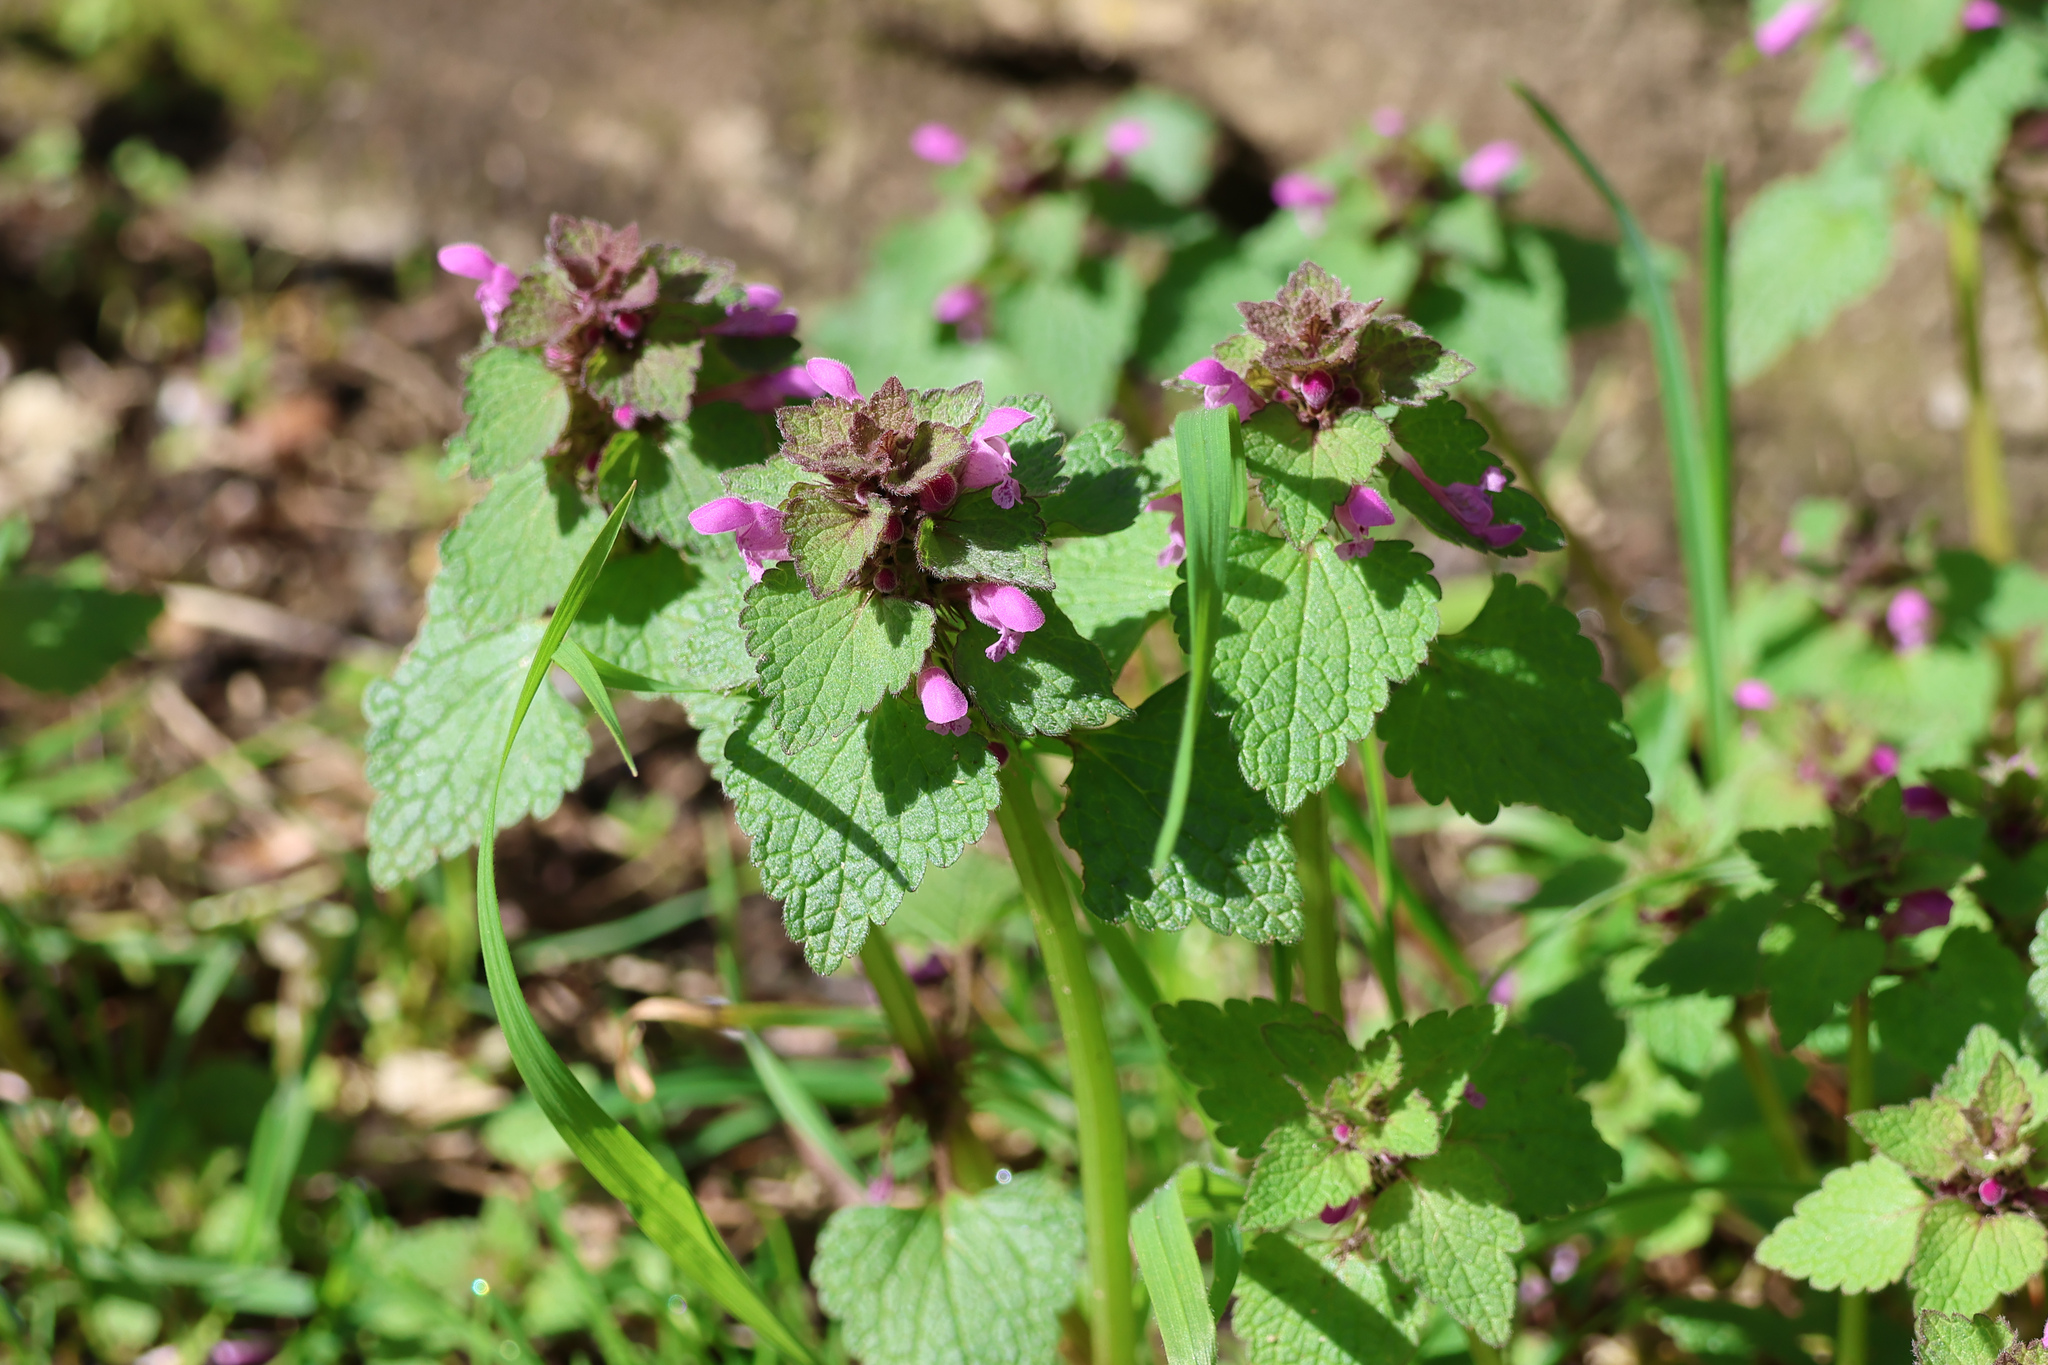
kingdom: Plantae
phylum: Tracheophyta
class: Magnoliopsida
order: Lamiales
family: Lamiaceae
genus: Lamium
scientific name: Lamium purpureum
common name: Red dead-nettle
